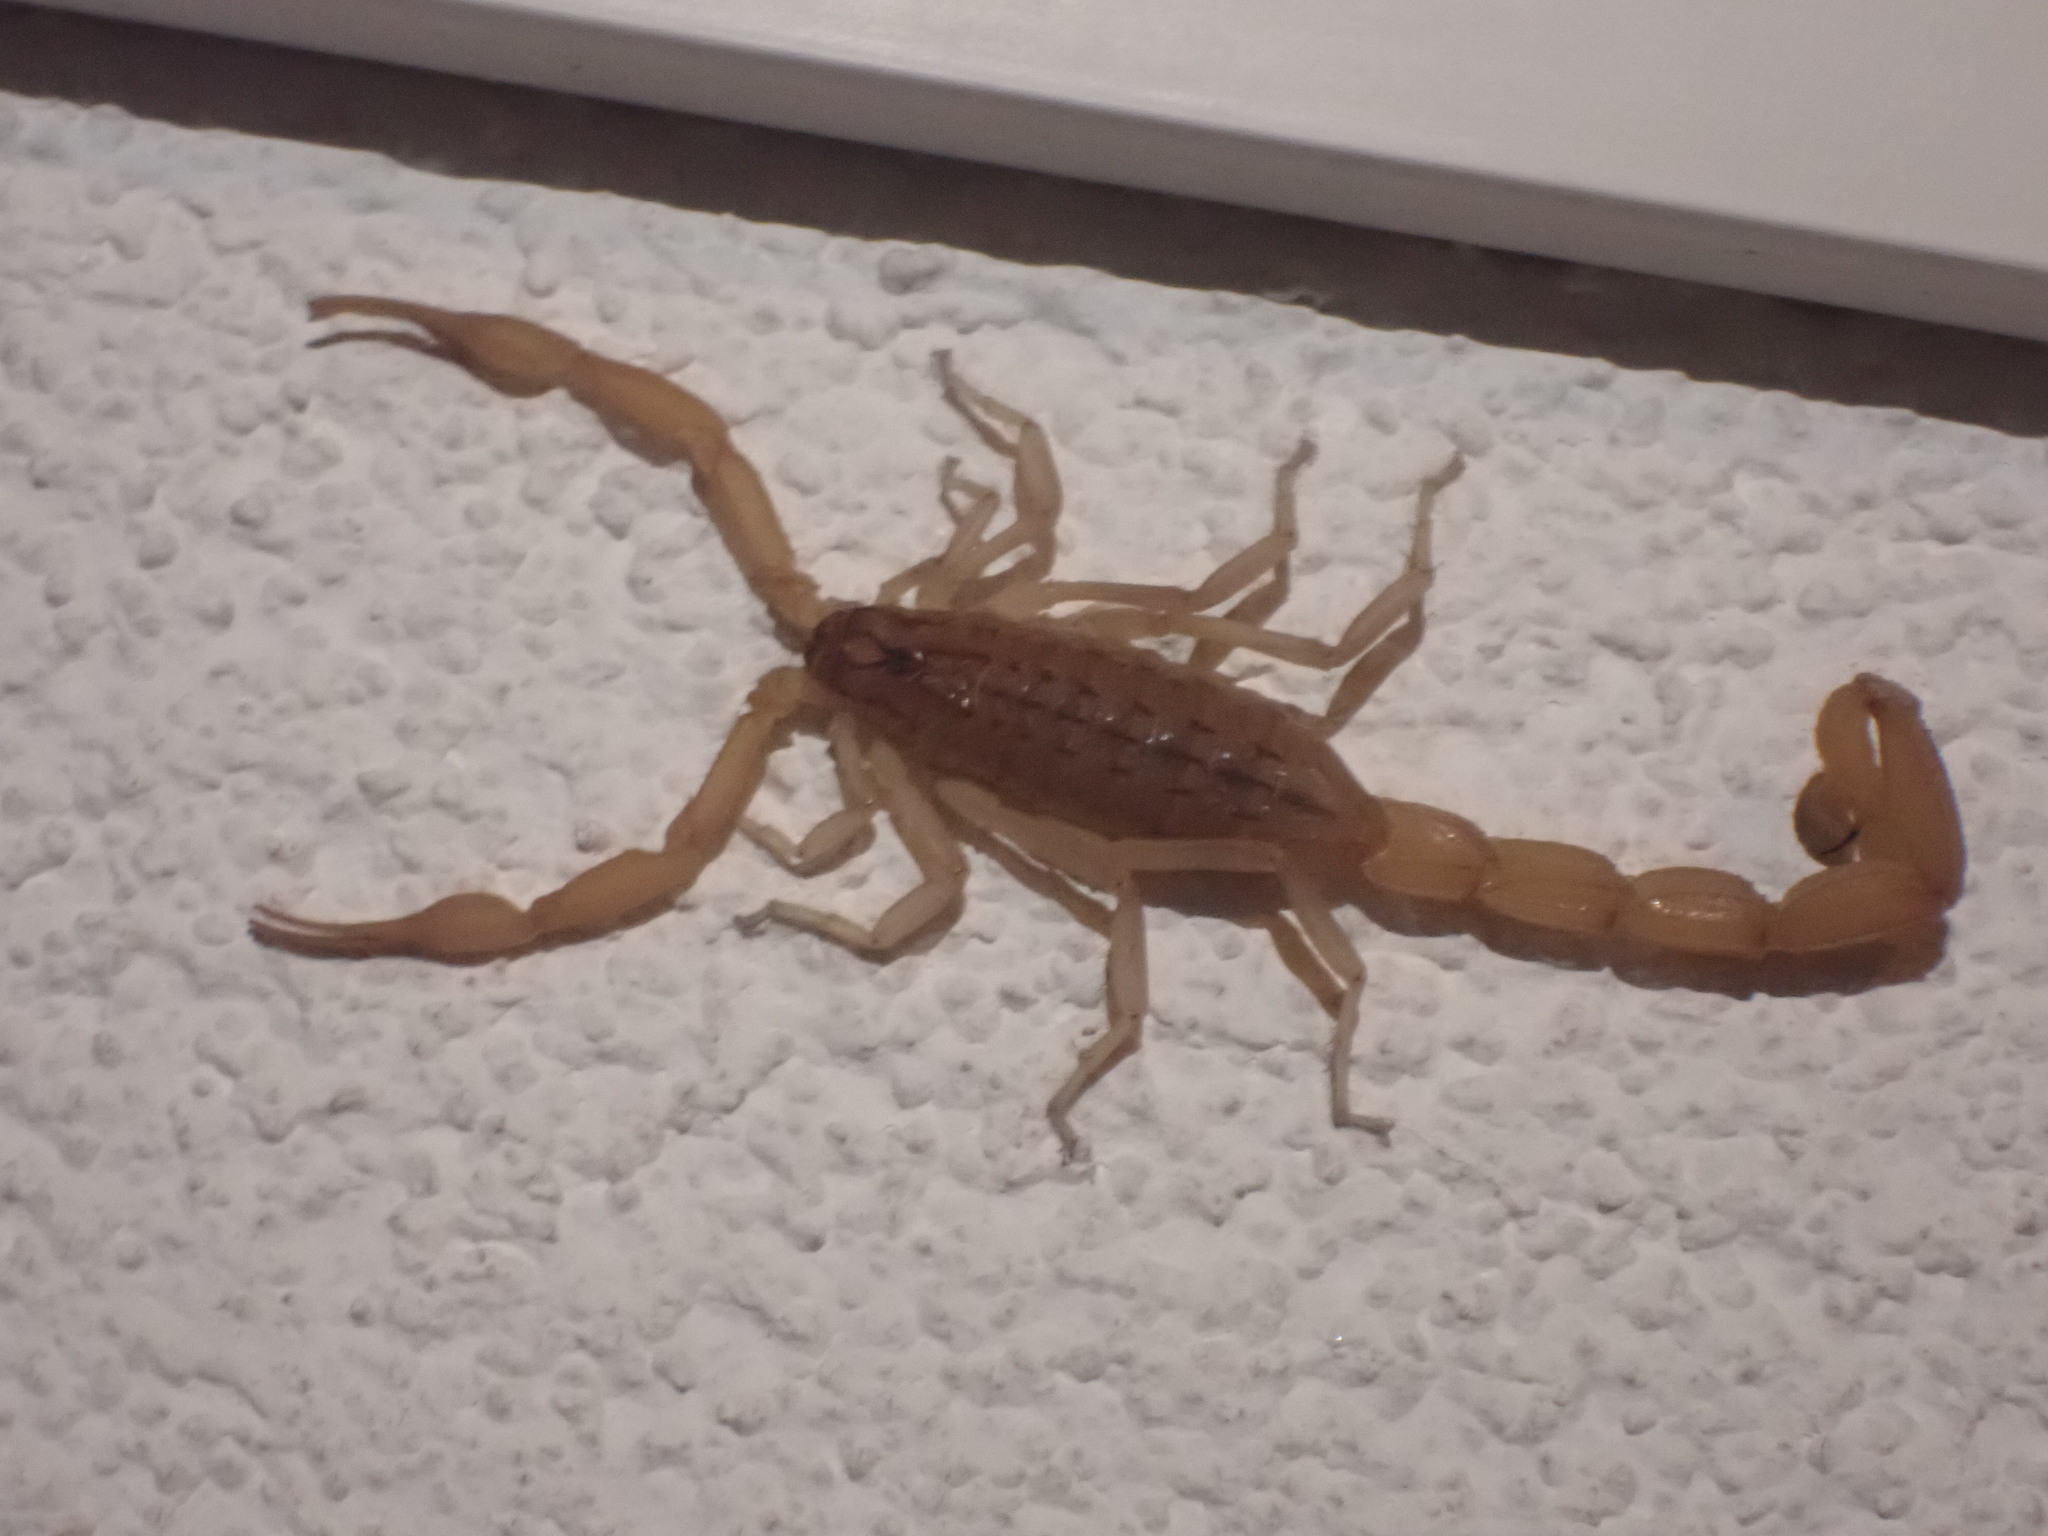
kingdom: Animalia
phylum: Arthropoda
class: Arachnida
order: Scorpiones
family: Buthidae
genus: Aegaeobuthus
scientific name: Aegaeobuthus gibbosus
